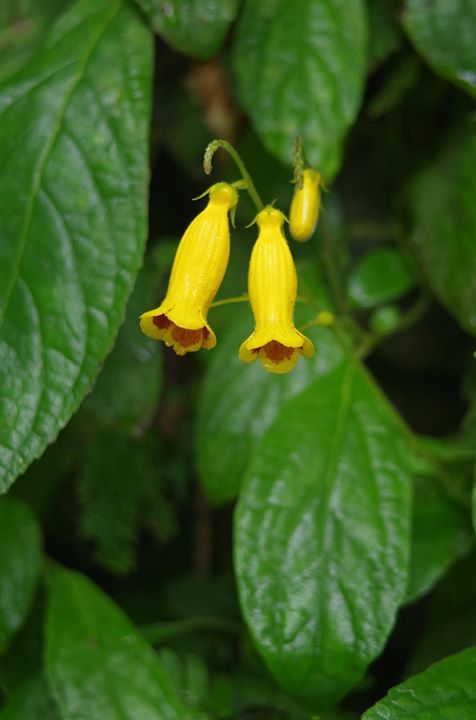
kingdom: Plantae
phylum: Tracheophyta
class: Magnoliopsida
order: Lamiales
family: Gesneriaceae
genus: Titanotrichum
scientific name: Titanotrichum oldhamii
